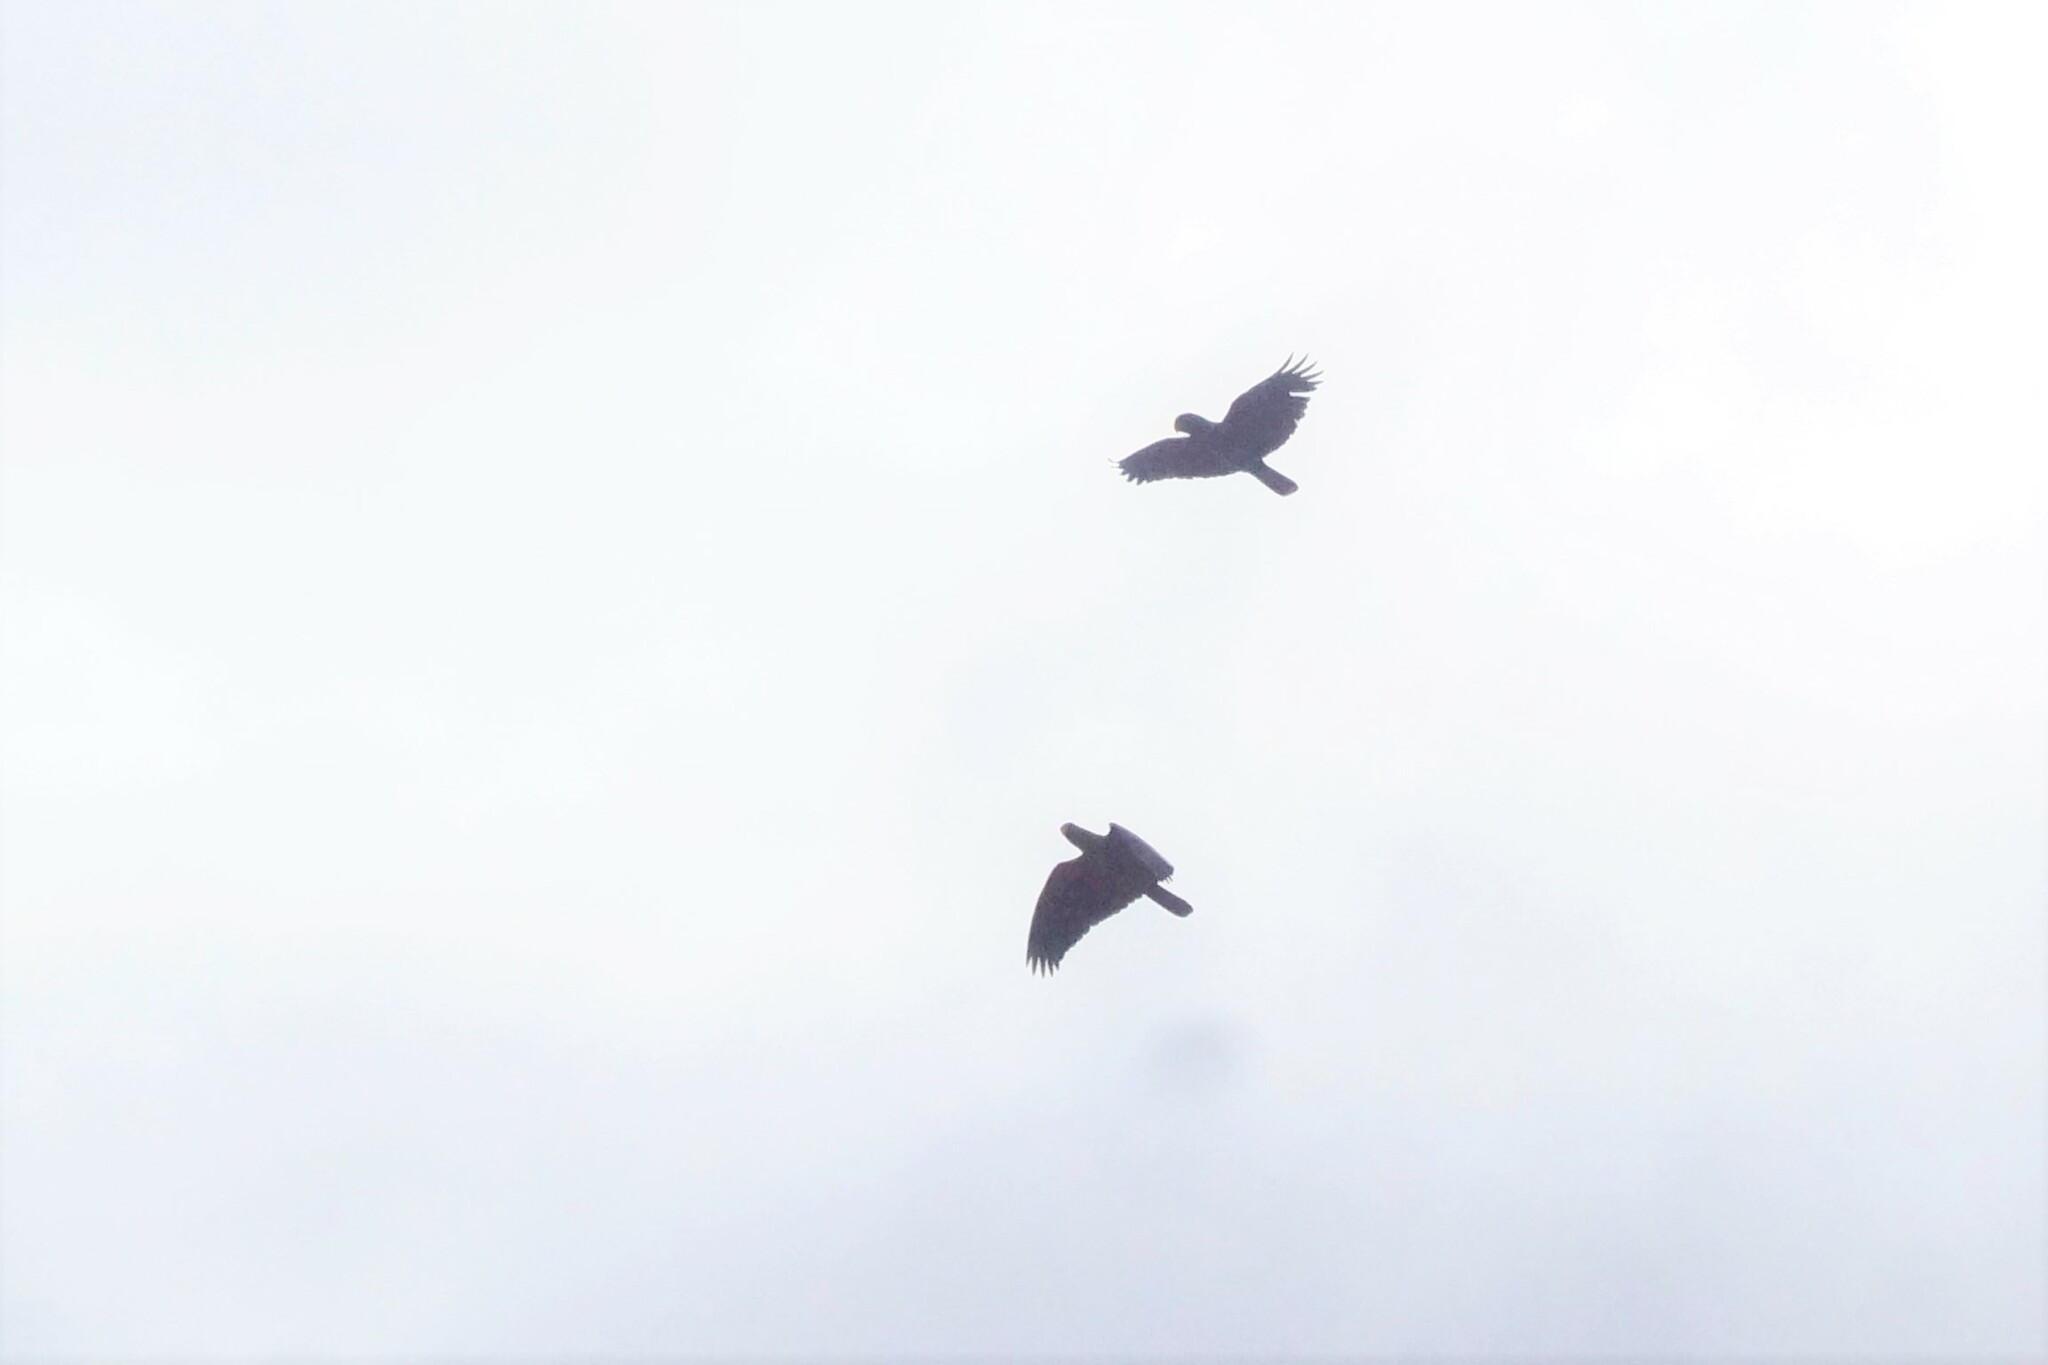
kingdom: Animalia
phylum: Chordata
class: Aves
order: Psittaciformes
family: Psittacidae
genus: Eclectus
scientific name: Eclectus roratus
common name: Eclectus parrot
